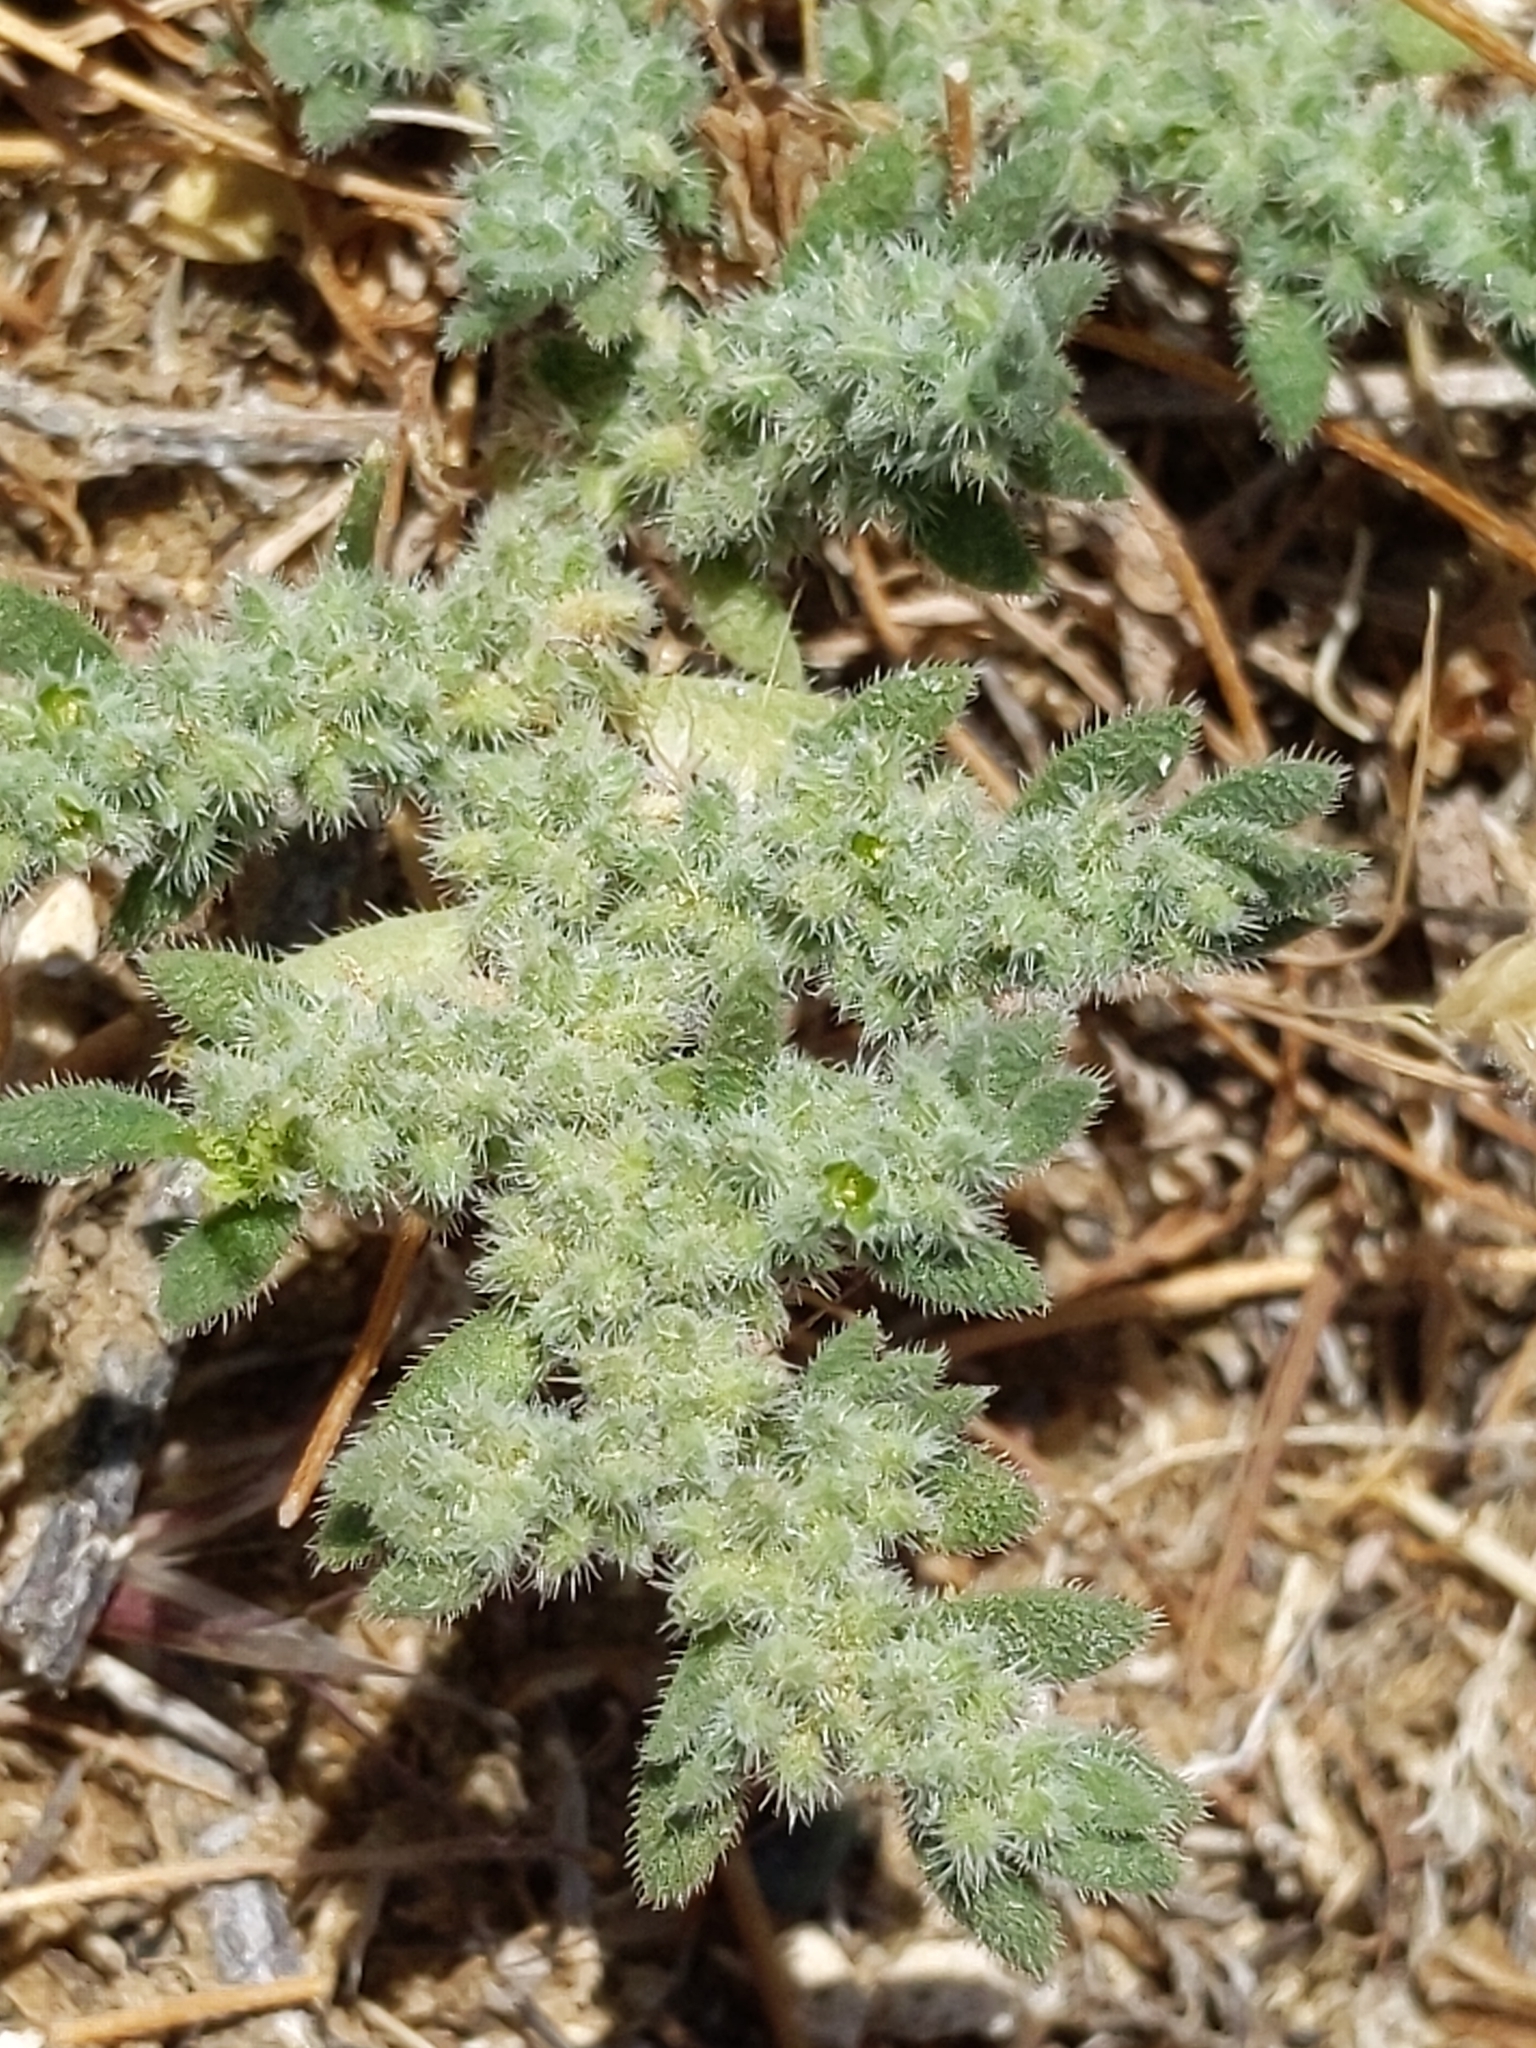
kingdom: Plantae
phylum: Tracheophyta
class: Magnoliopsida
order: Caryophyllales
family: Caryophyllaceae
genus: Herniaria
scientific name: Herniaria hirsuta
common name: Hairy rupturewort
